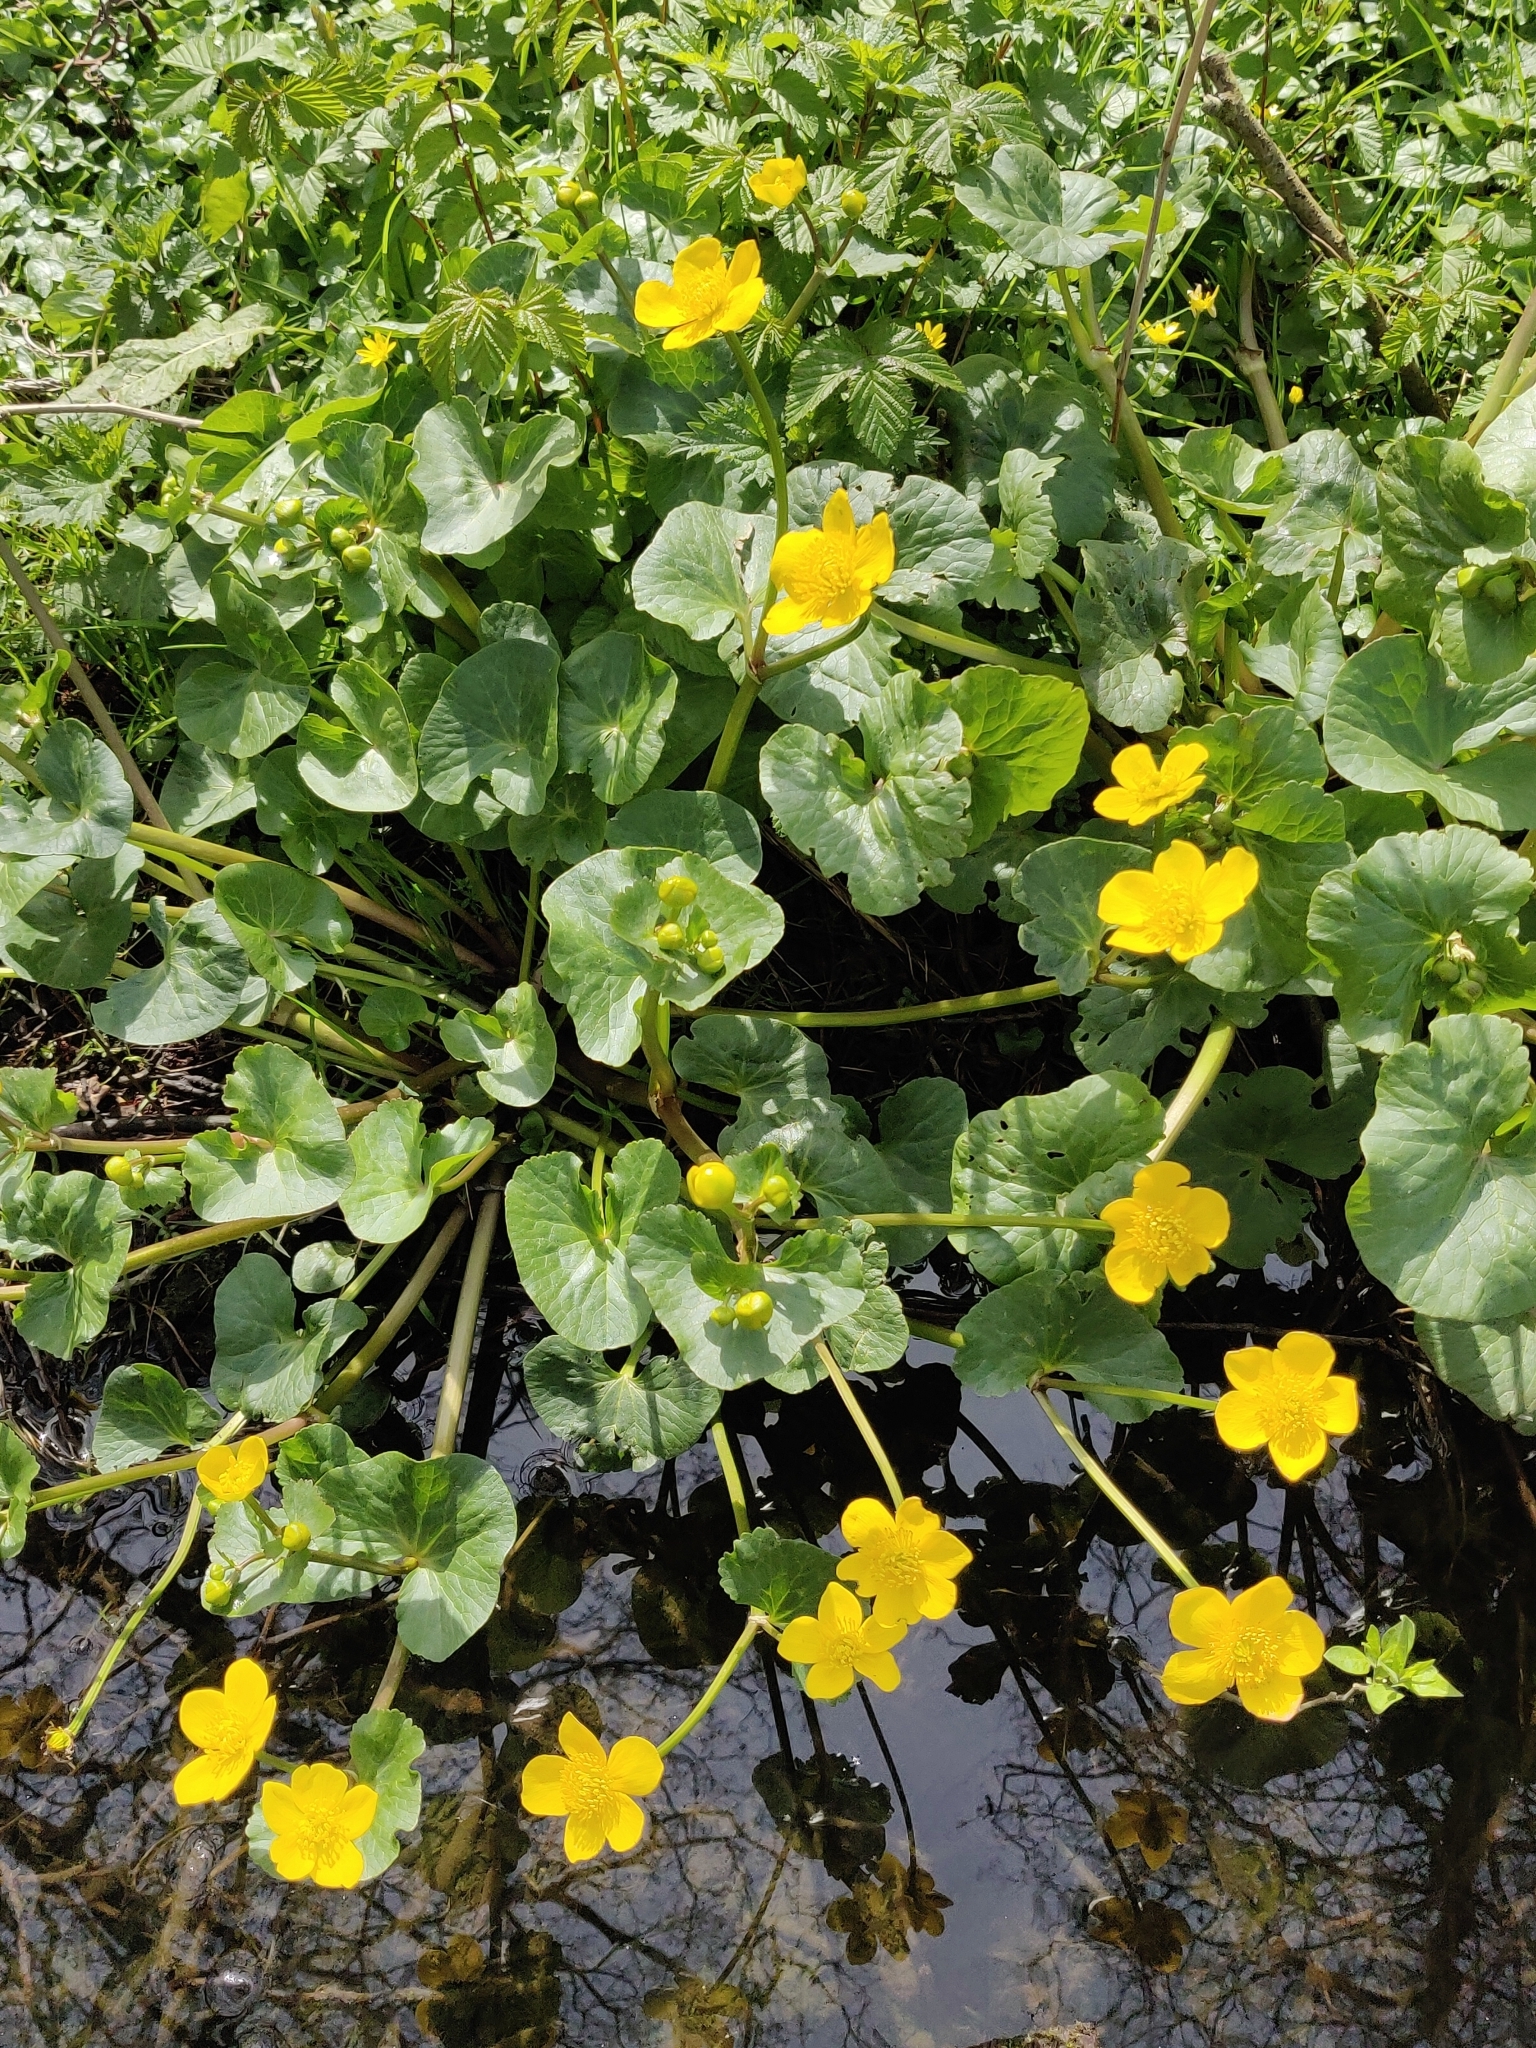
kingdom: Plantae
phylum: Tracheophyta
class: Magnoliopsida
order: Ranunculales
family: Ranunculaceae
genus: Caltha
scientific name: Caltha palustris
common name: Marsh marigold
